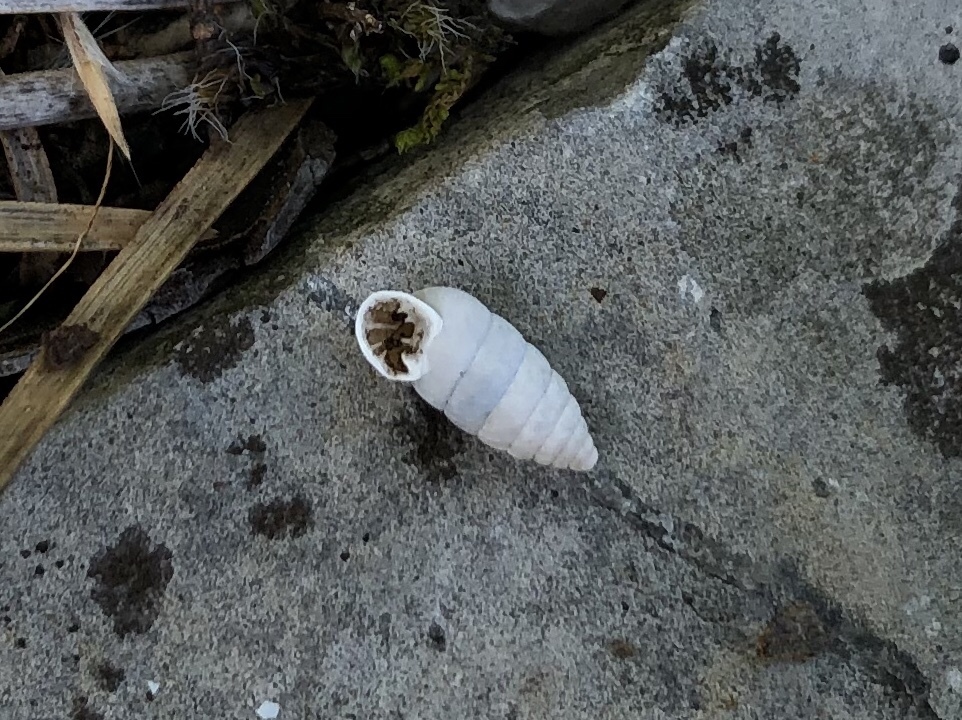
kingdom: Animalia
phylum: Mollusca
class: Gastropoda
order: Stylommatophora
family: Chondrinidae
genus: Granaria
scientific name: Granaria frumentum
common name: An air-breathing land snail
